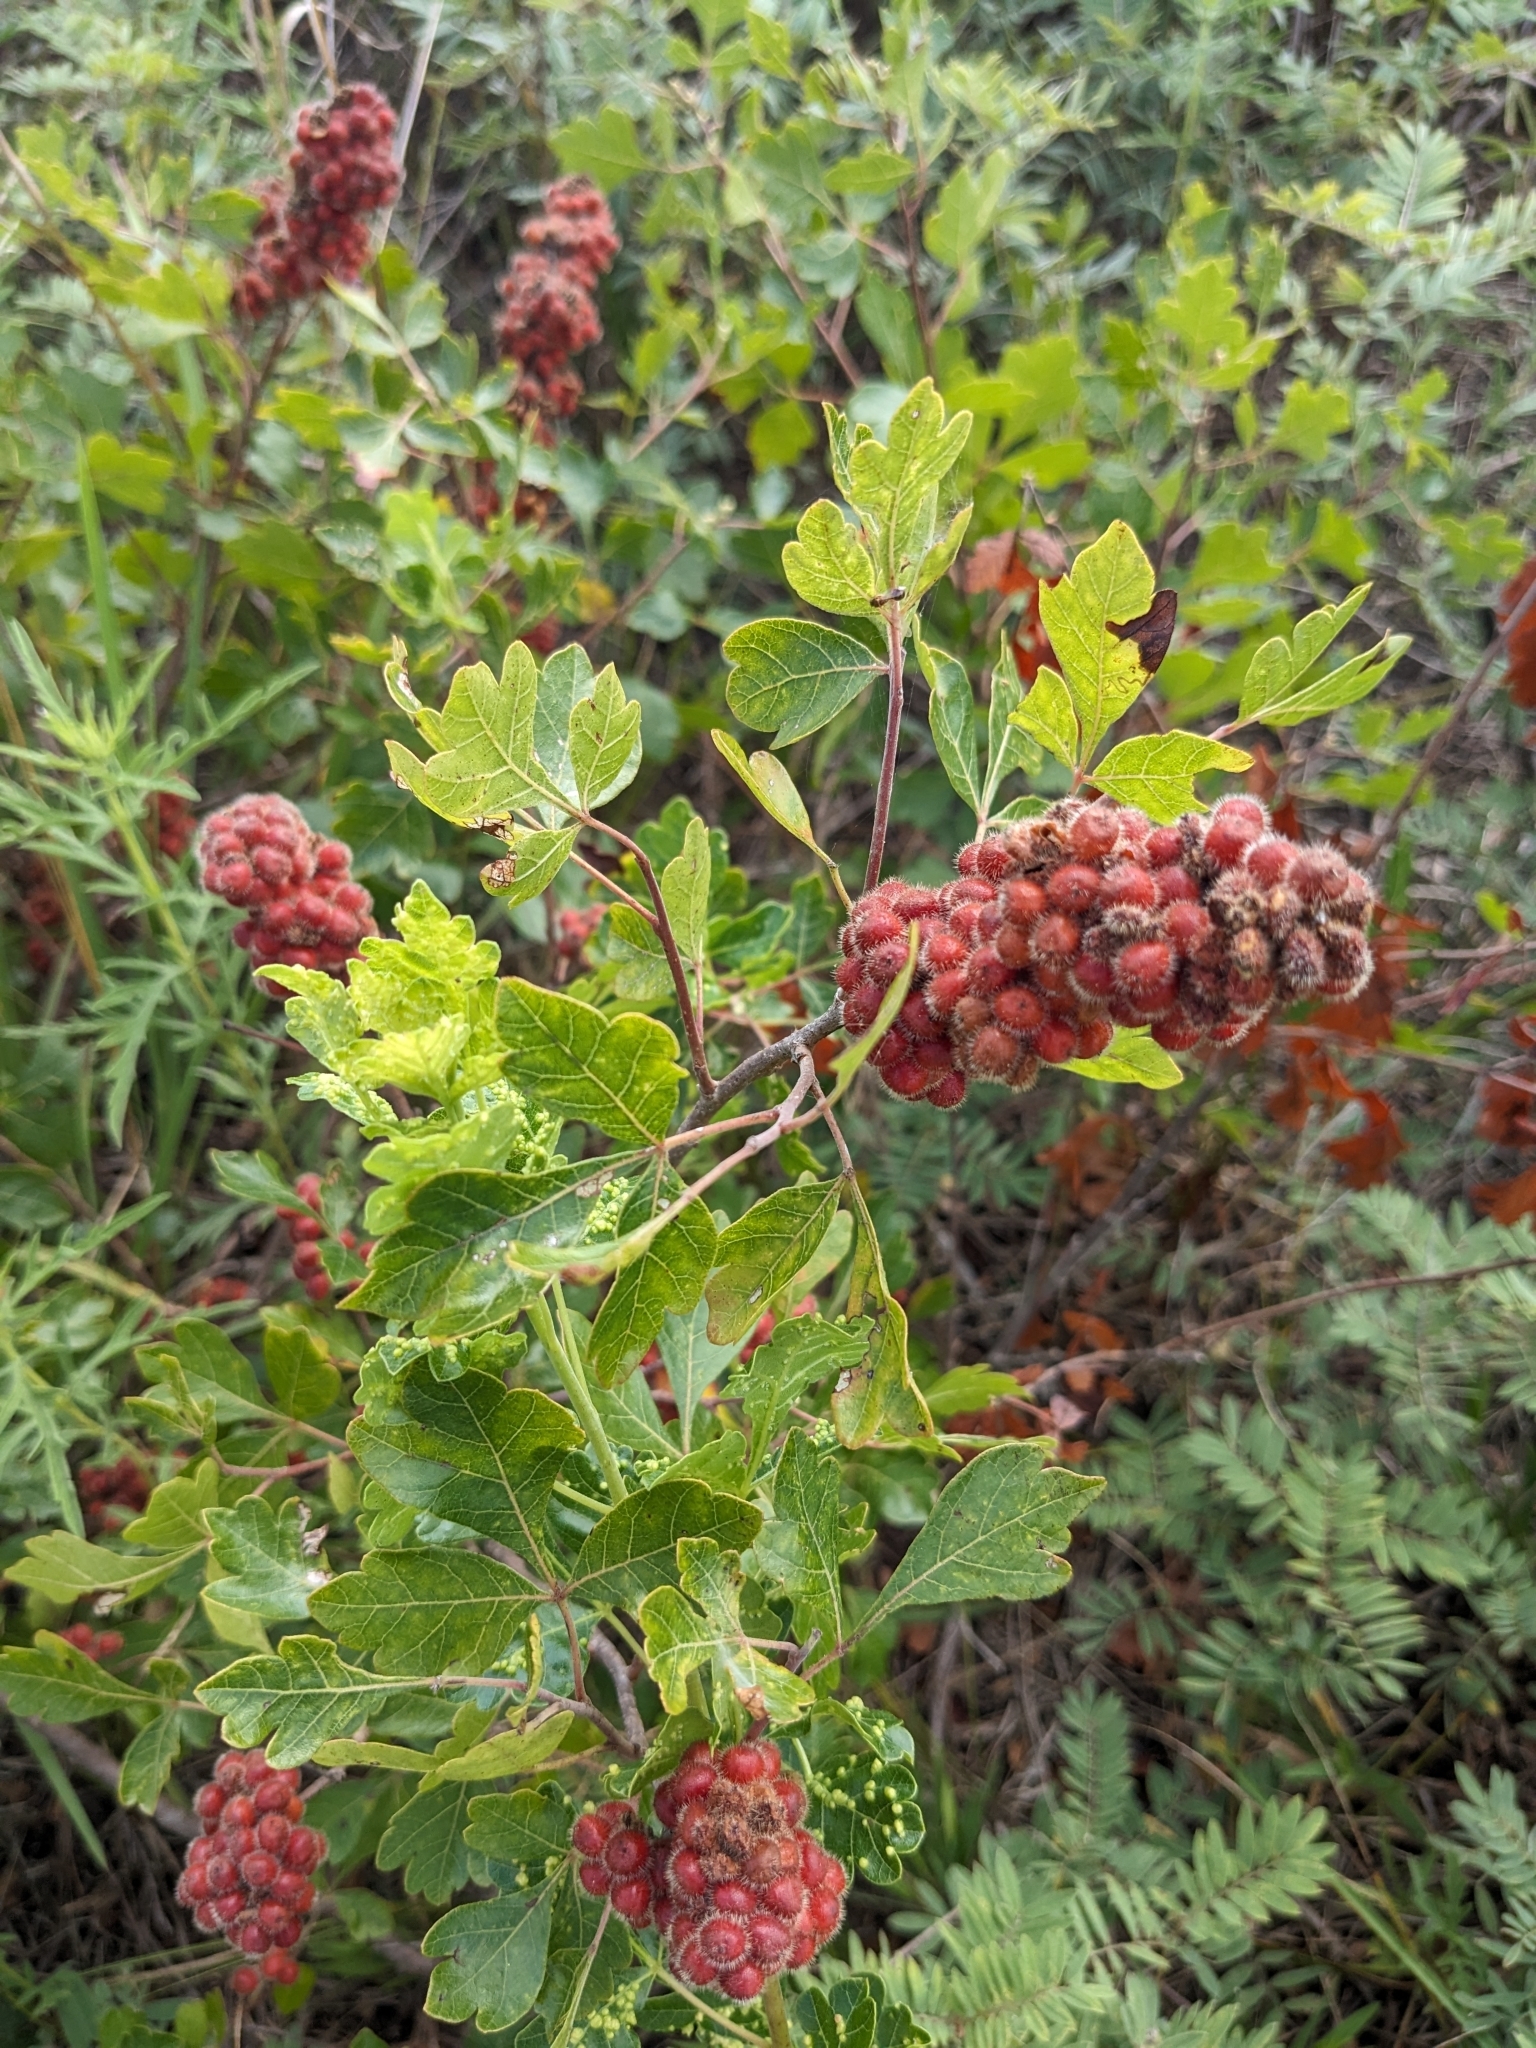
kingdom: Plantae
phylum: Tracheophyta
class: Magnoliopsida
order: Sapindales
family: Anacardiaceae
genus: Rhus
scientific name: Rhus aromatica
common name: Aromatic sumac
